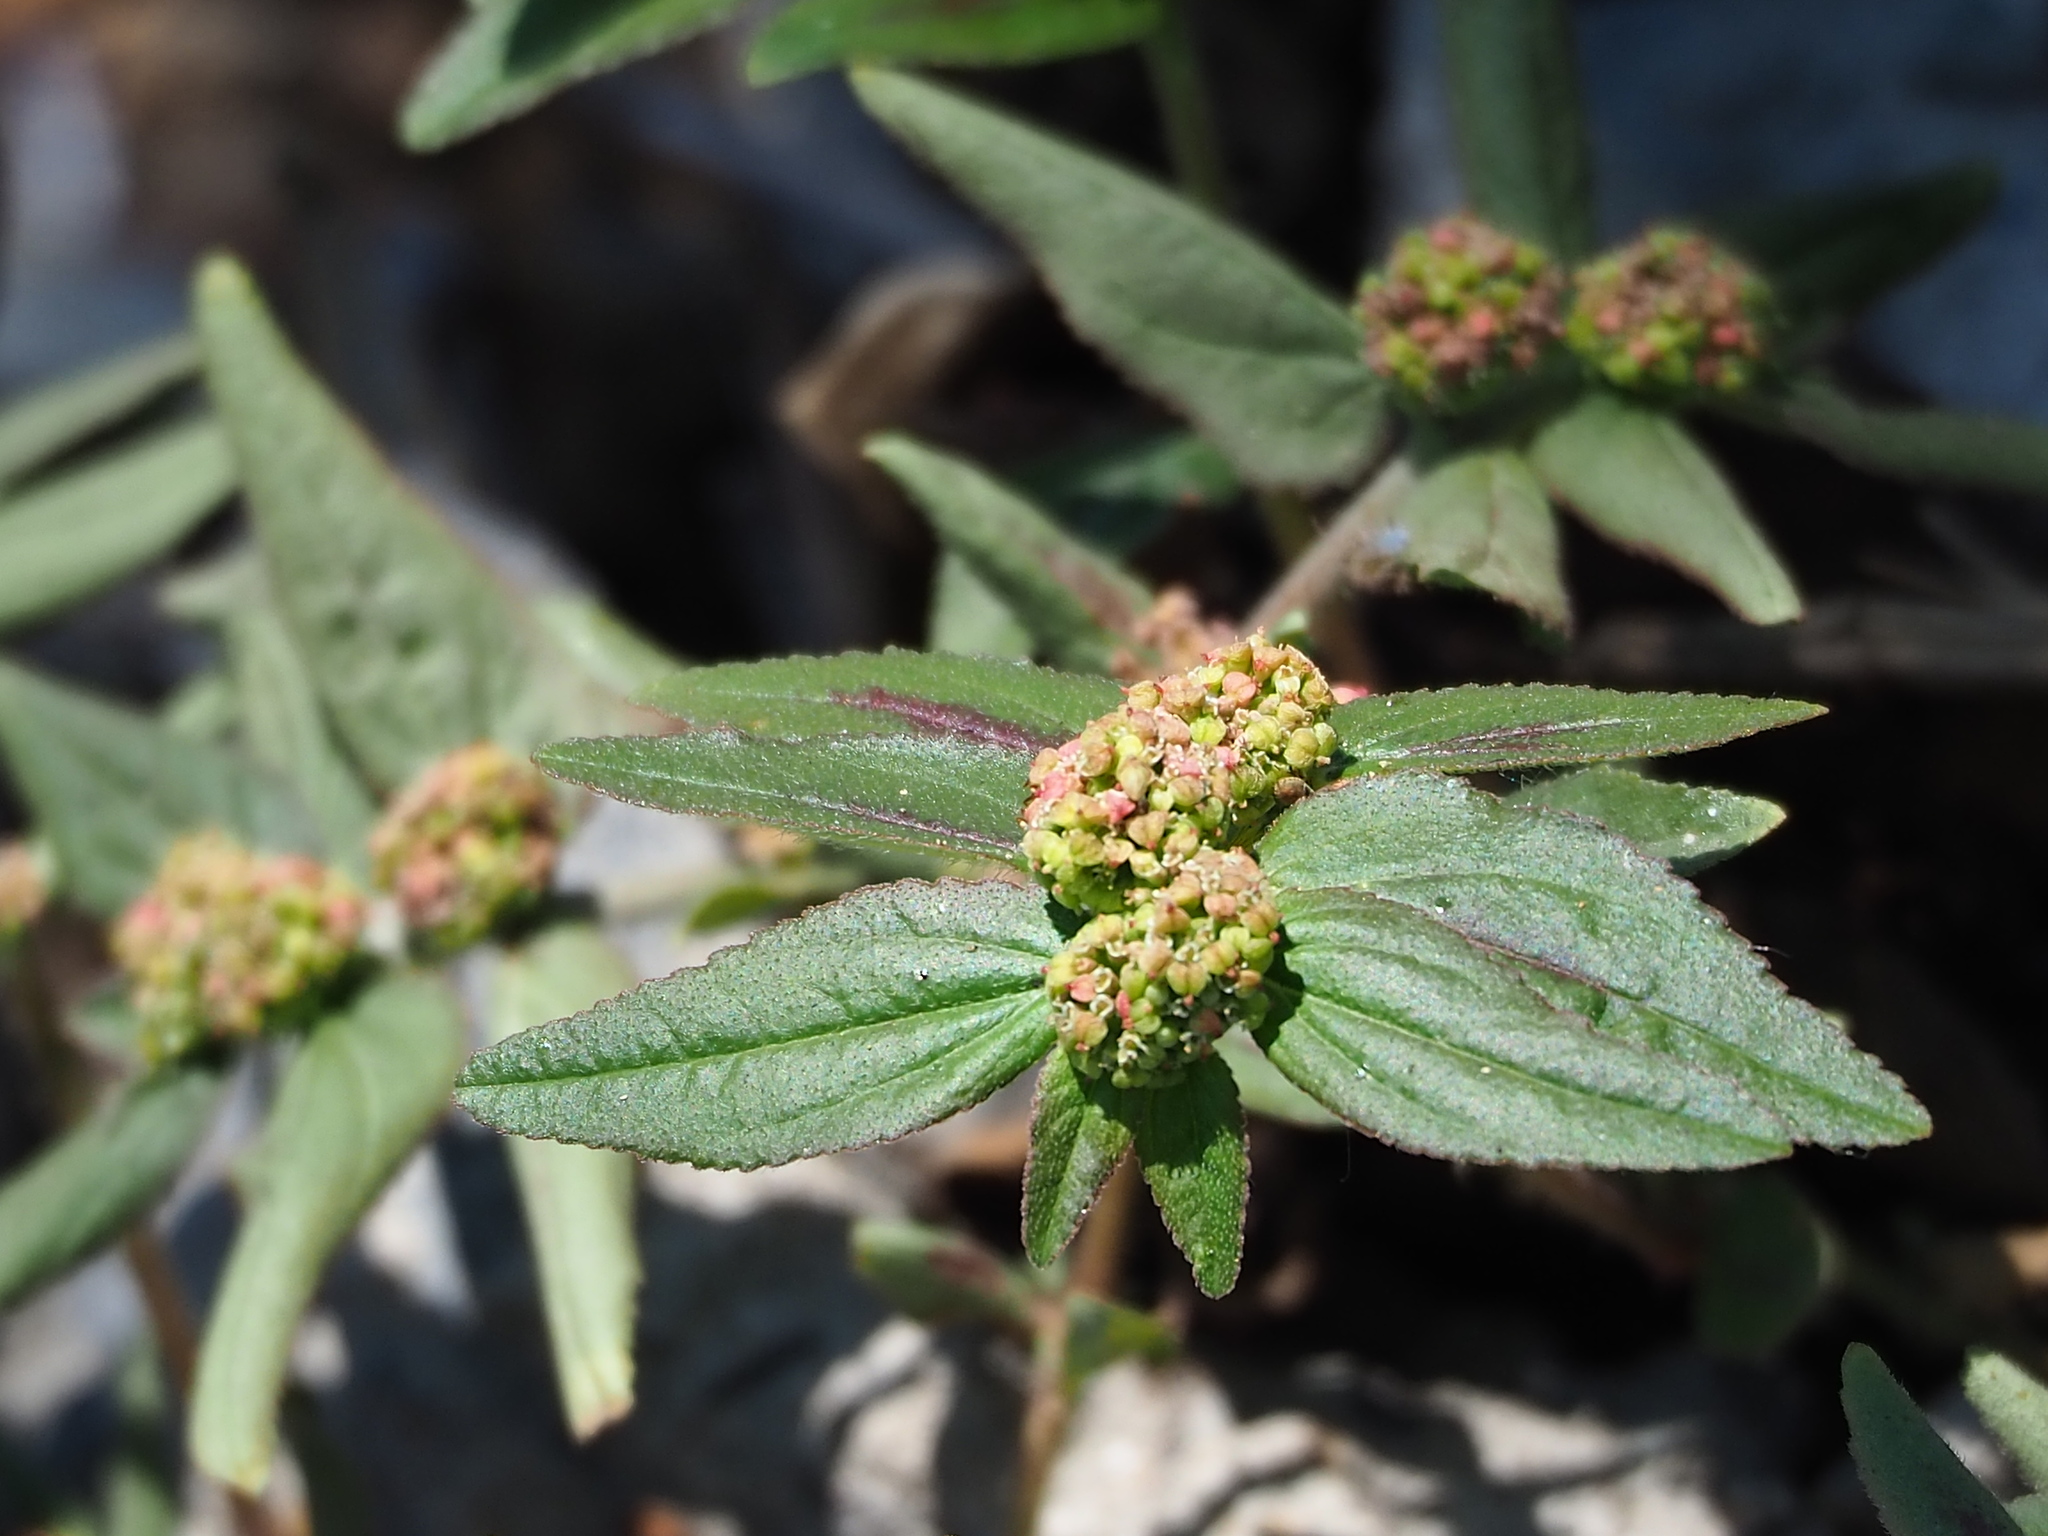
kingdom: Plantae
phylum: Tracheophyta
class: Magnoliopsida
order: Malpighiales
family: Euphorbiaceae
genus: Euphorbia
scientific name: Euphorbia hirta
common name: Pillpod sandmat
